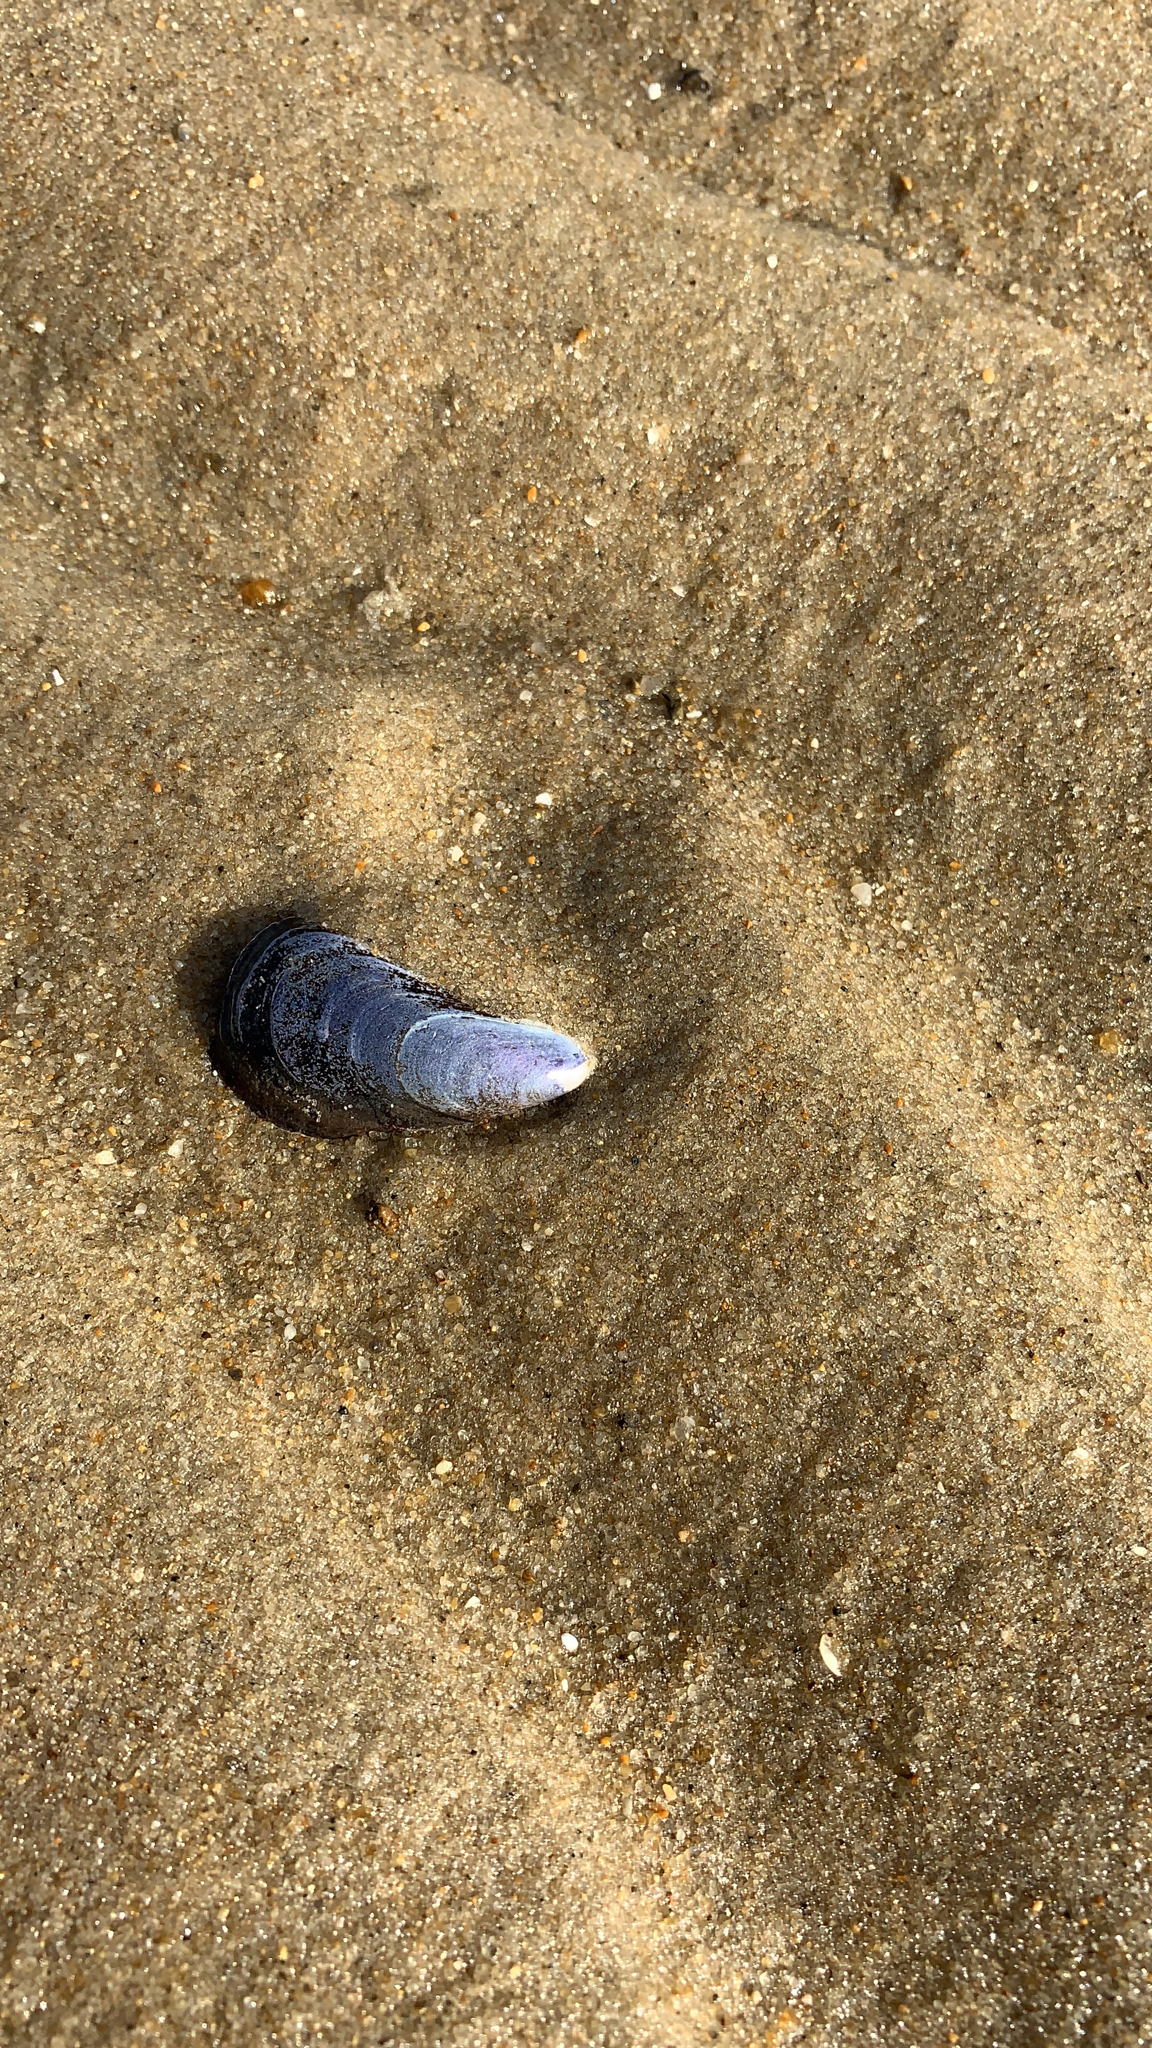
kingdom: Animalia
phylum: Mollusca
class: Bivalvia
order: Mytilida
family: Mytilidae
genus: Mytilus
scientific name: Mytilus edulis
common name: Blue mussel
